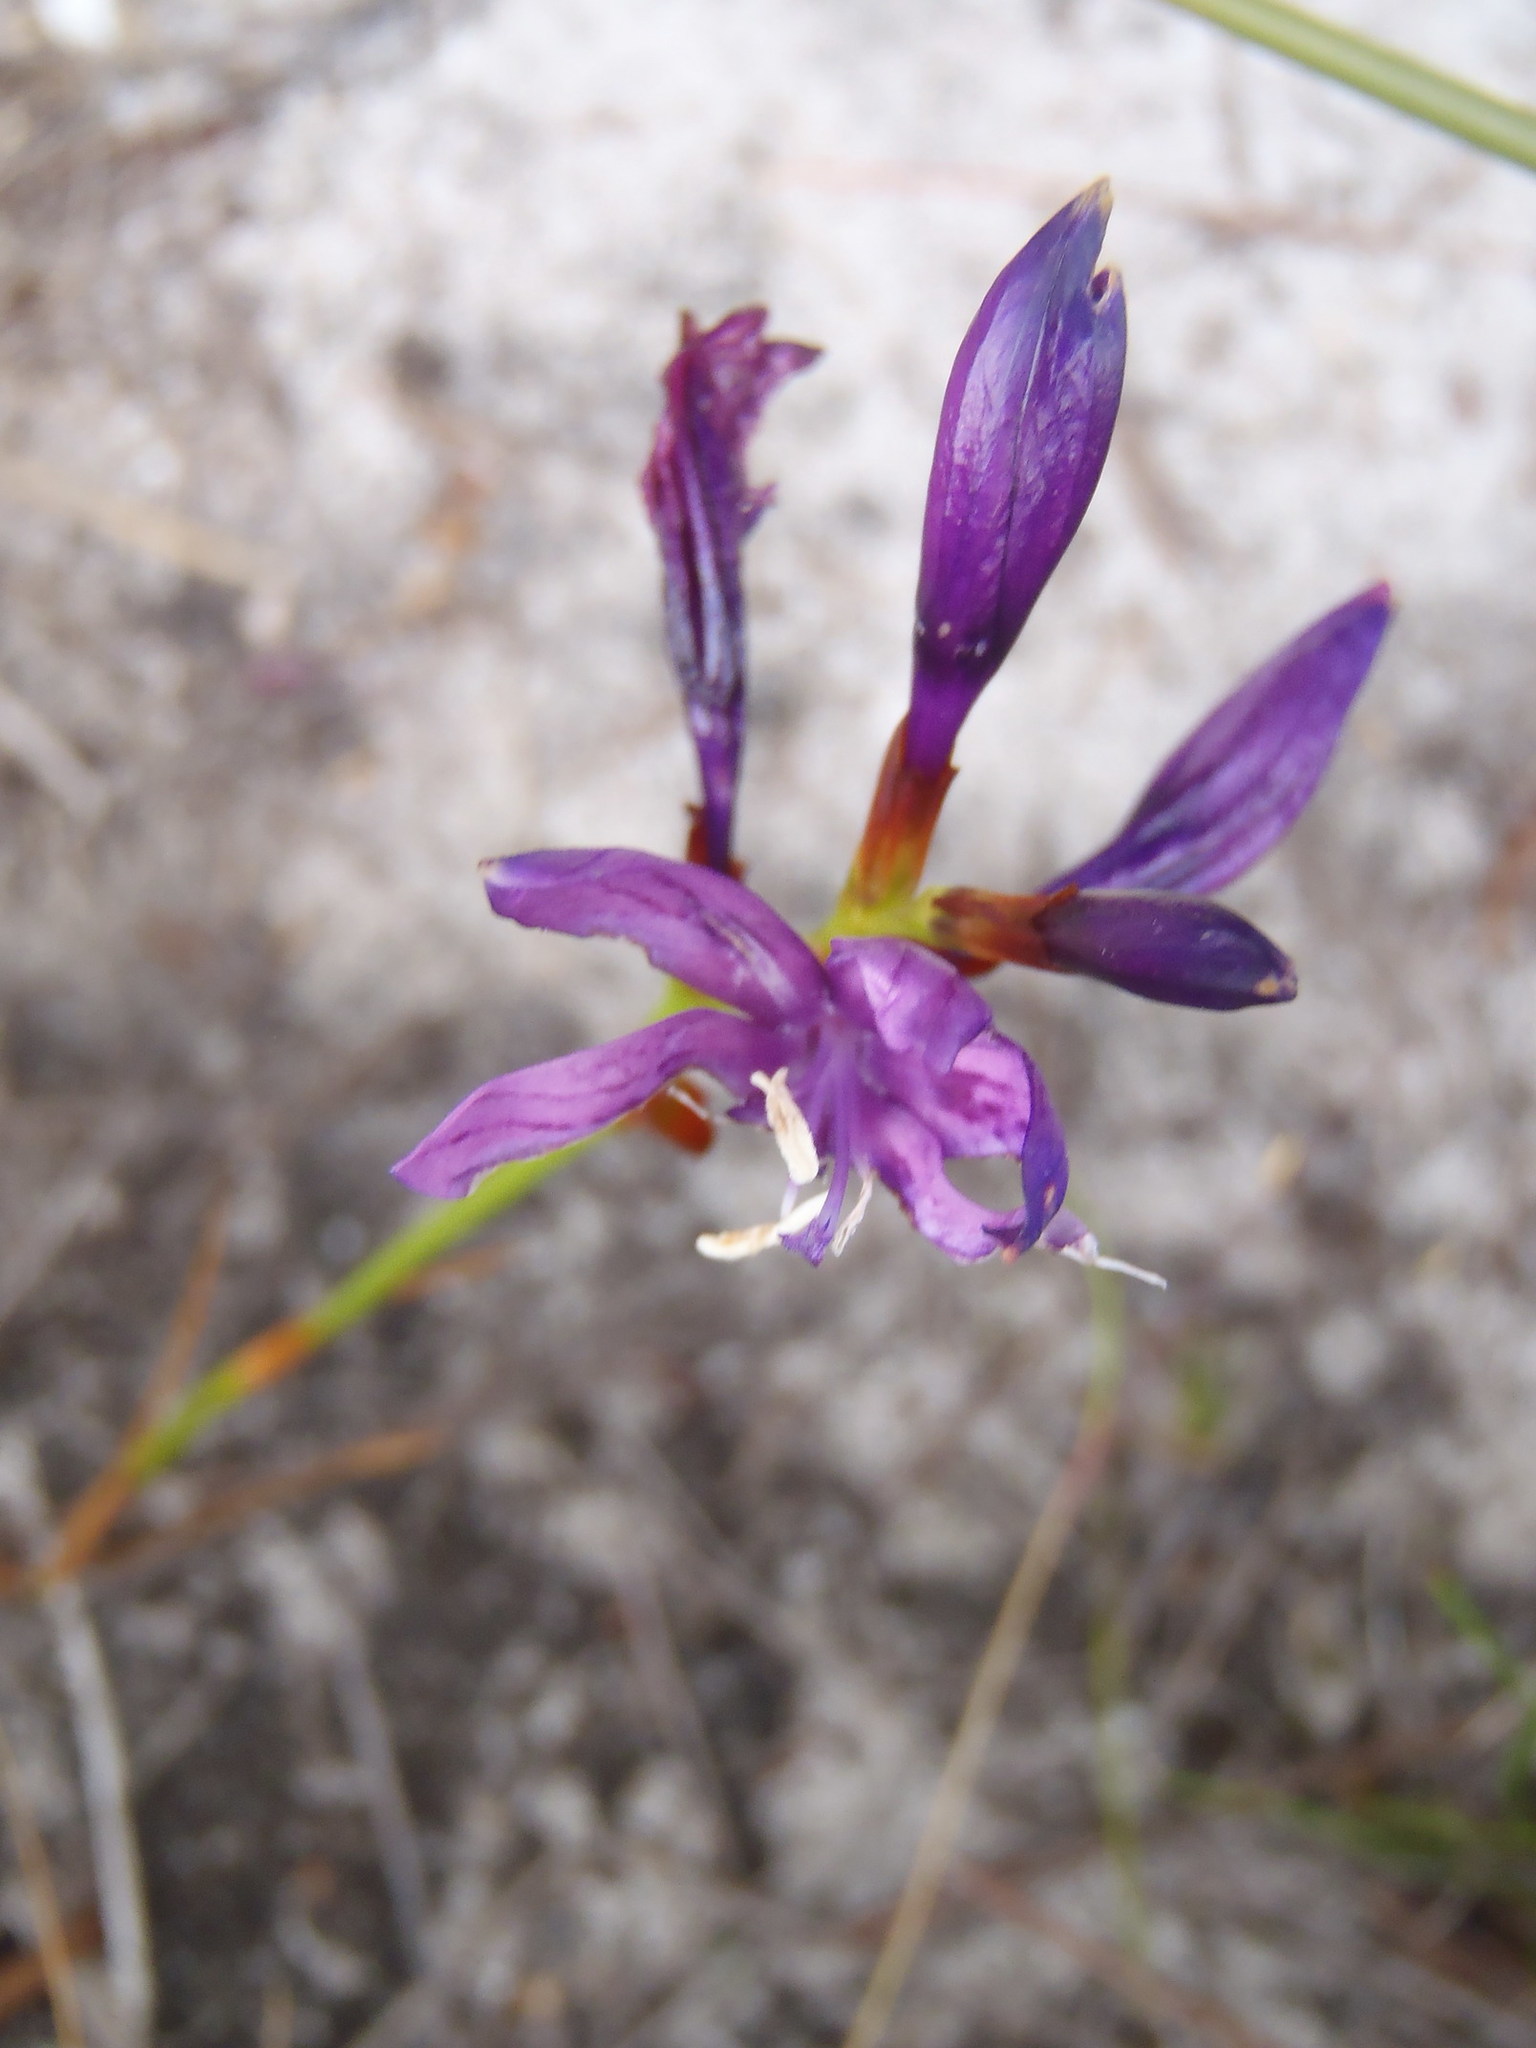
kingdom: Plantae
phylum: Tracheophyta
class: Liliopsida
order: Asparagales
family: Iridaceae
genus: Thereianthus
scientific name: Thereianthus bracteolatus
